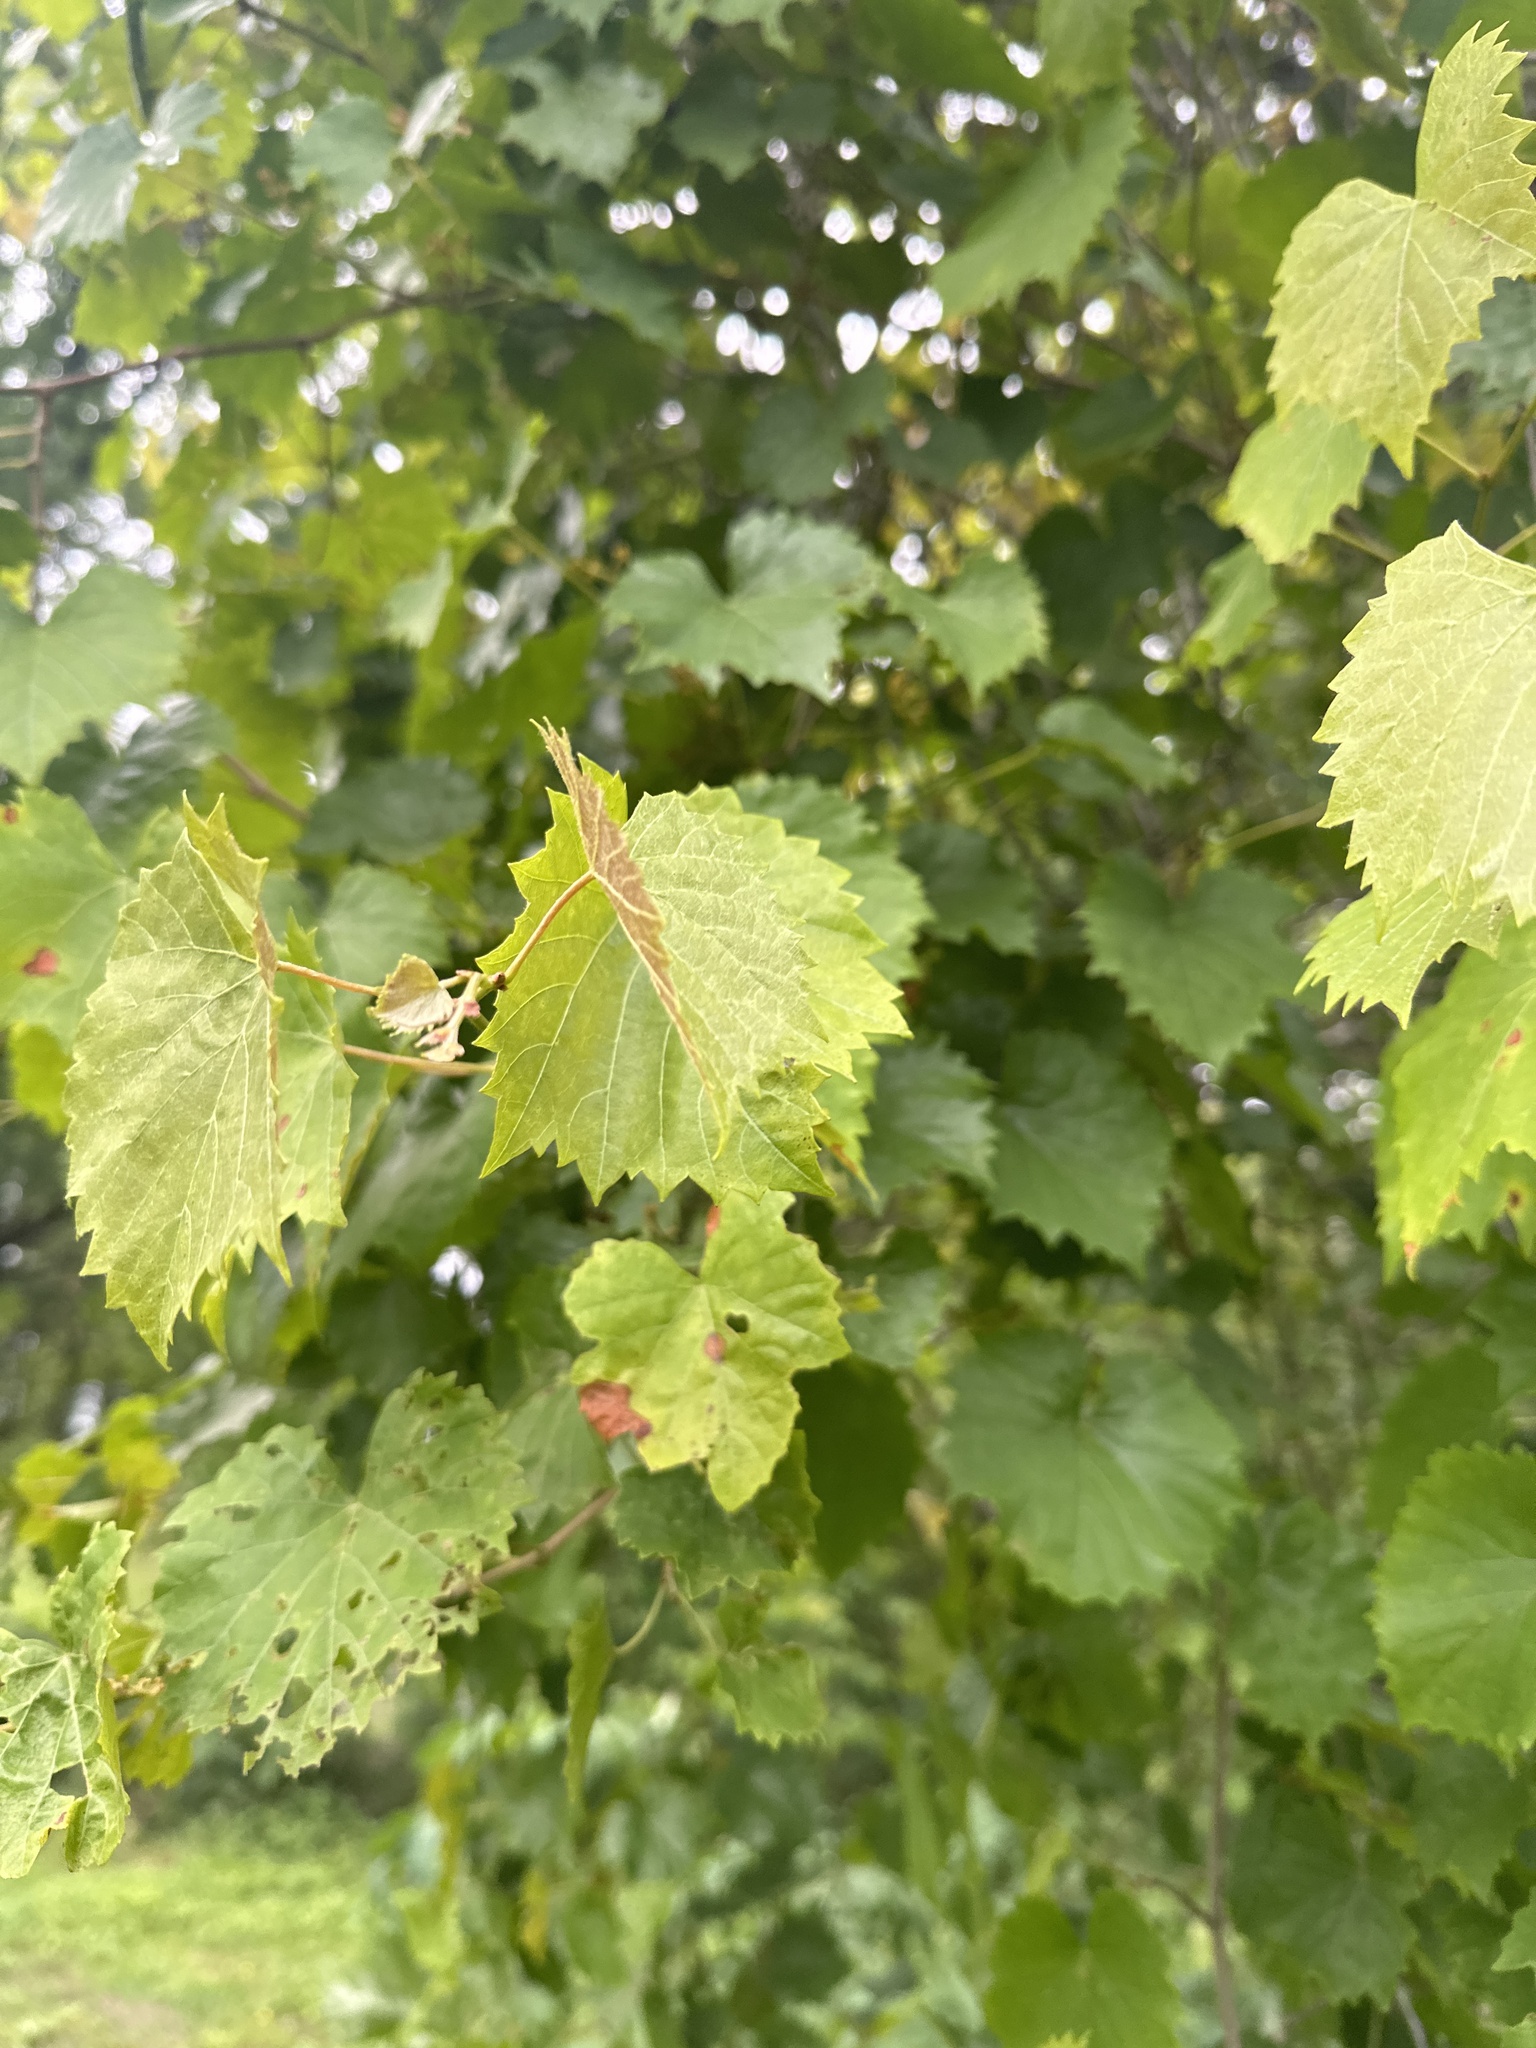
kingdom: Plantae
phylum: Tracheophyta
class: Magnoliopsida
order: Vitales
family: Vitaceae
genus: Vitis
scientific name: Vitis rotundifolia
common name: Muscadine grape
